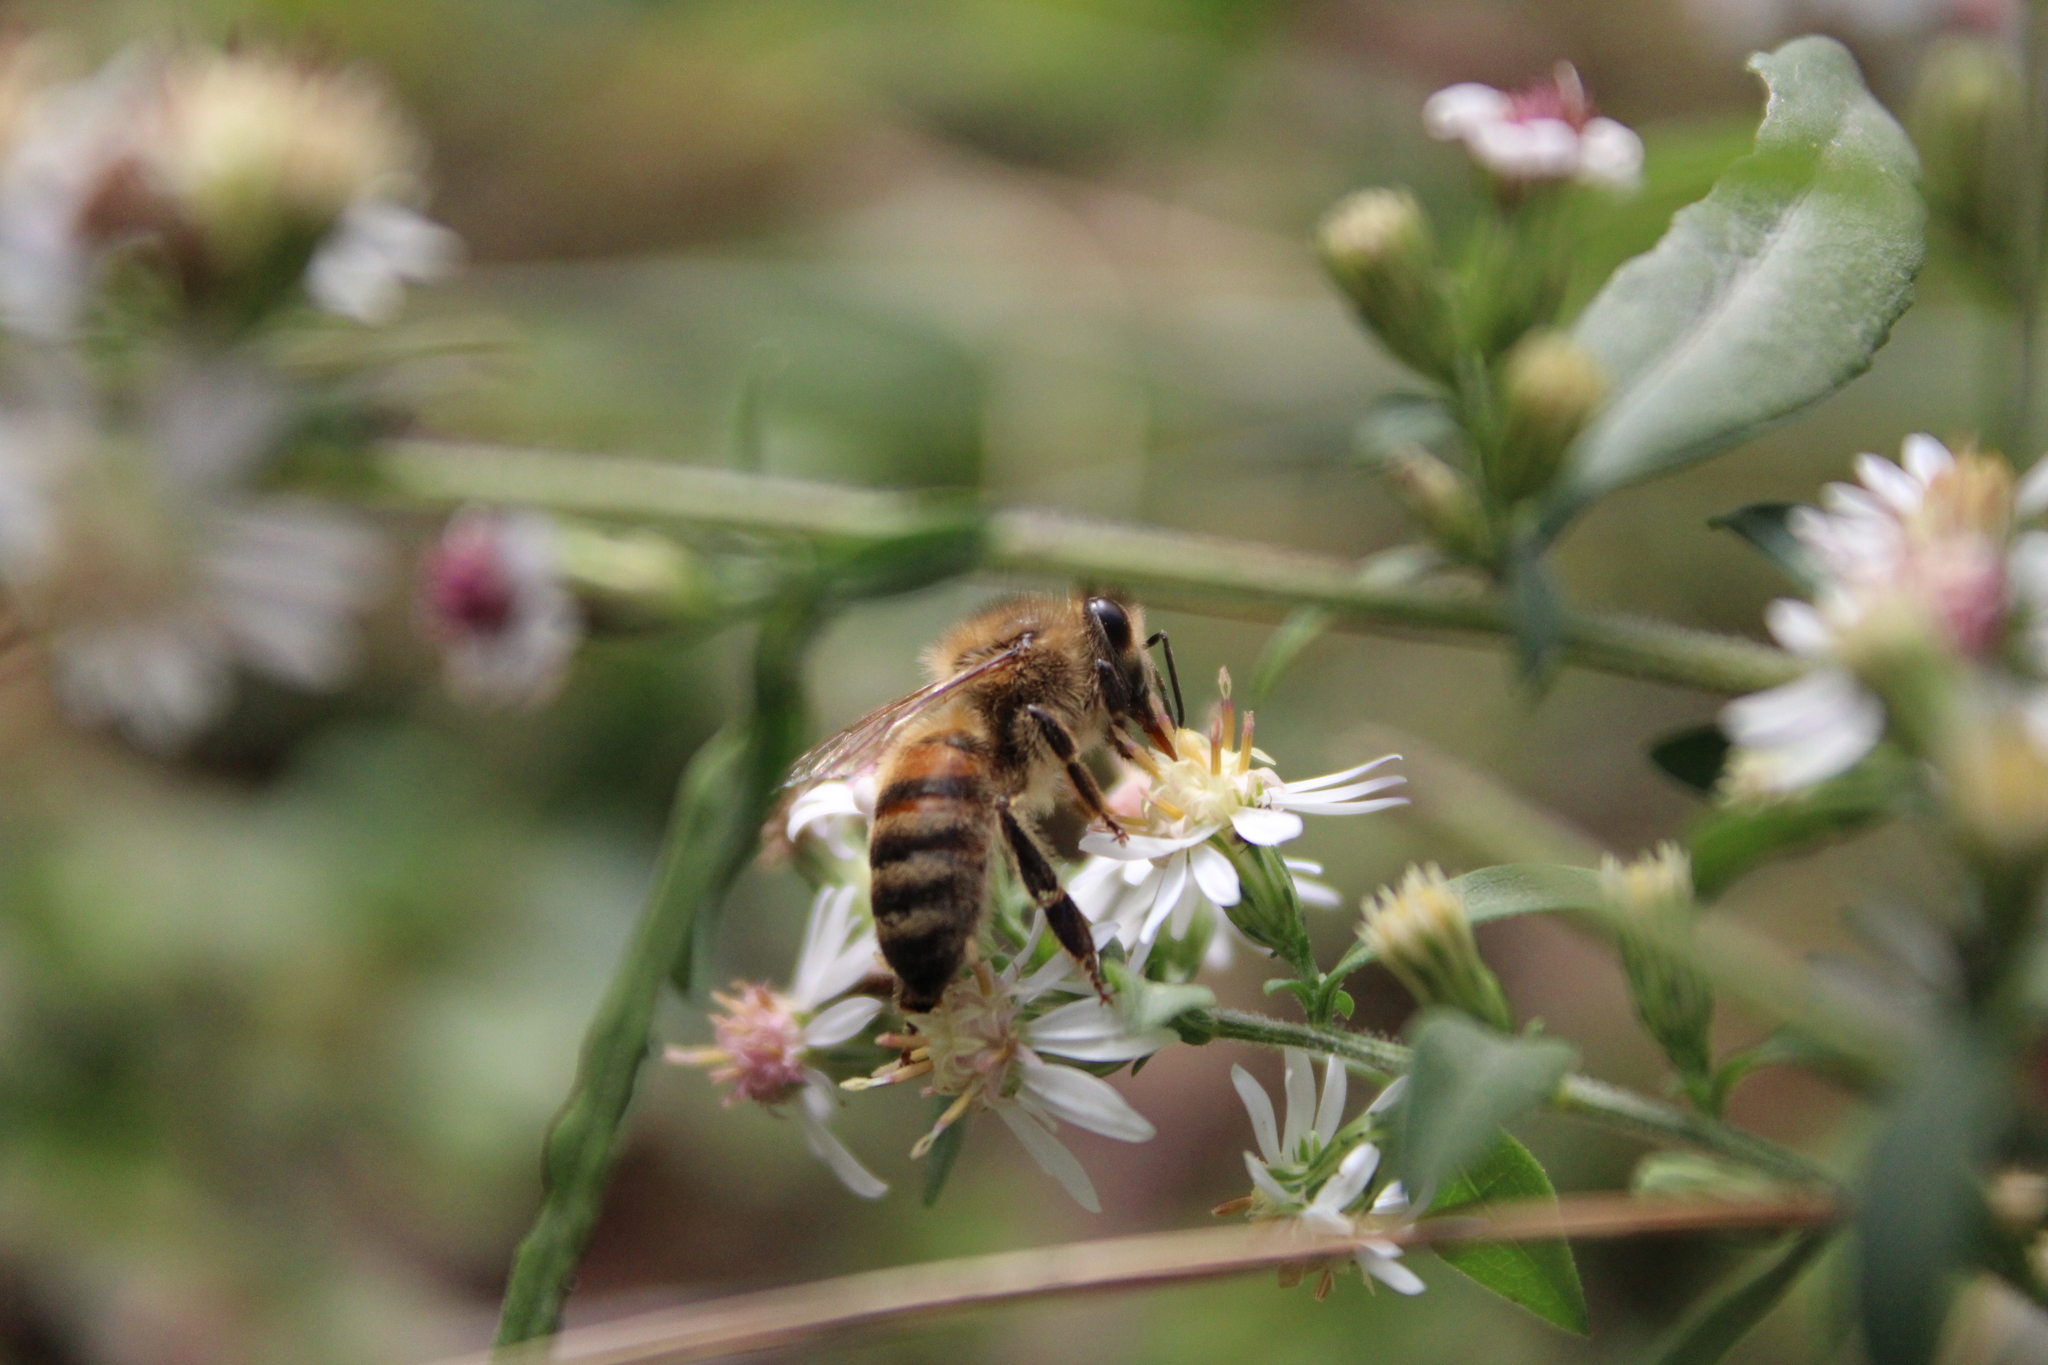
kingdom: Animalia
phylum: Arthropoda
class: Insecta
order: Hymenoptera
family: Apidae
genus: Apis
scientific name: Apis mellifera
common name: Honey bee
